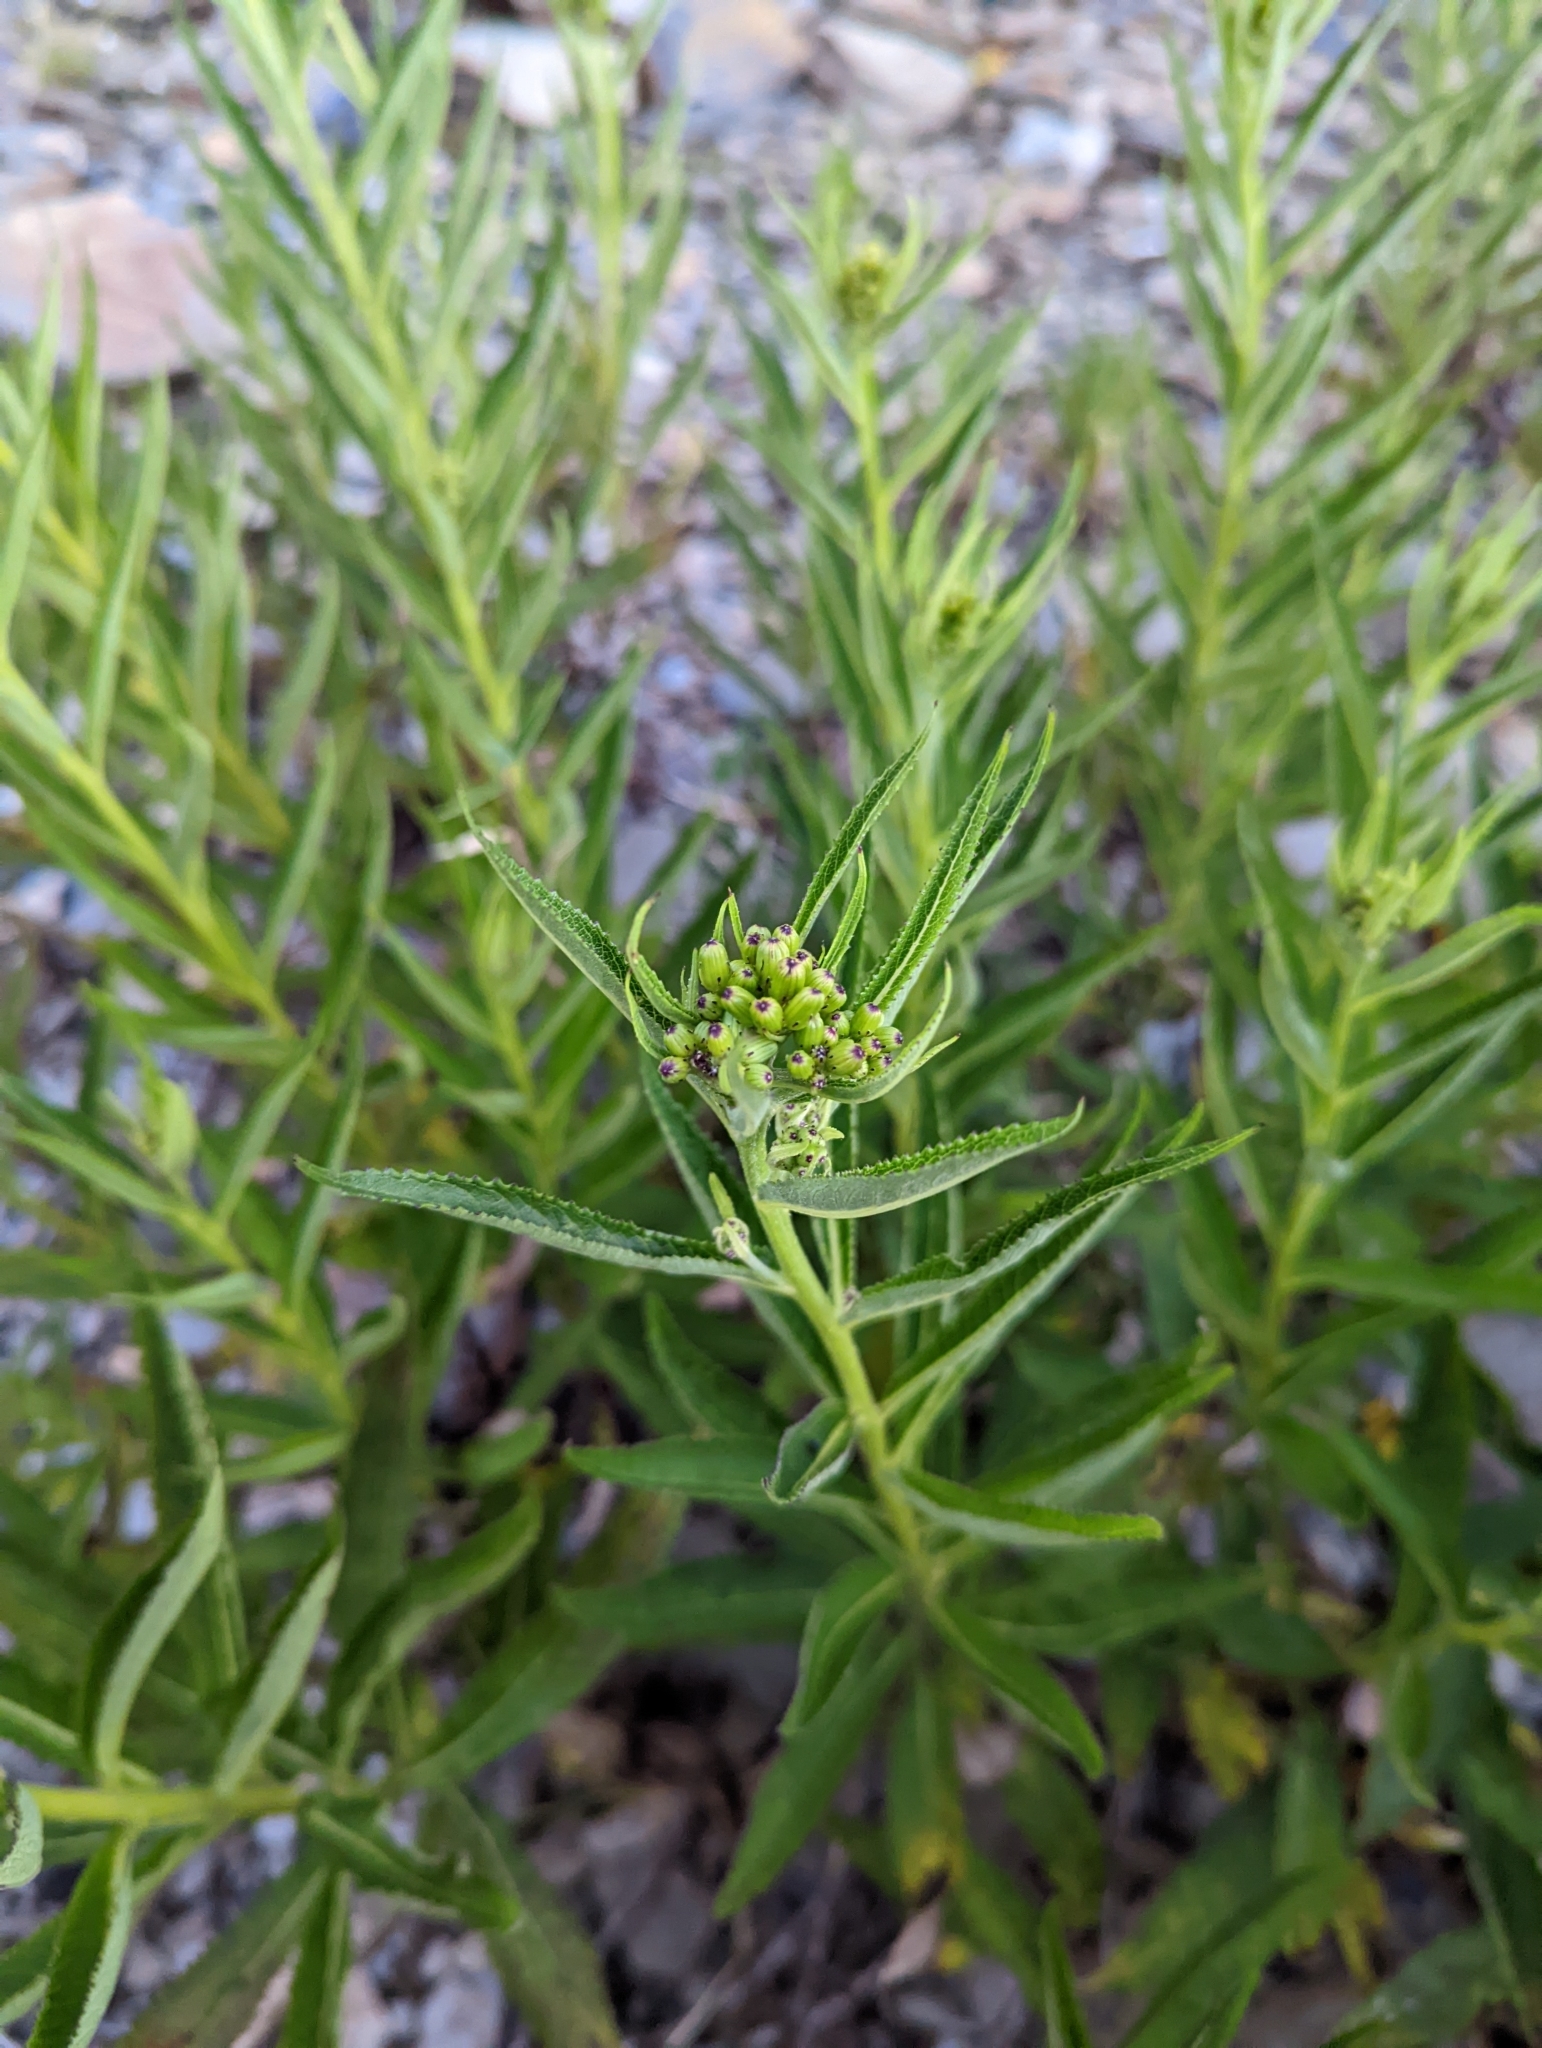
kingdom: Plantae
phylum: Tracheophyta
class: Magnoliopsida
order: Asterales
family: Asteraceae
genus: Jacobaea
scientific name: Jacobaea morrisonensis
